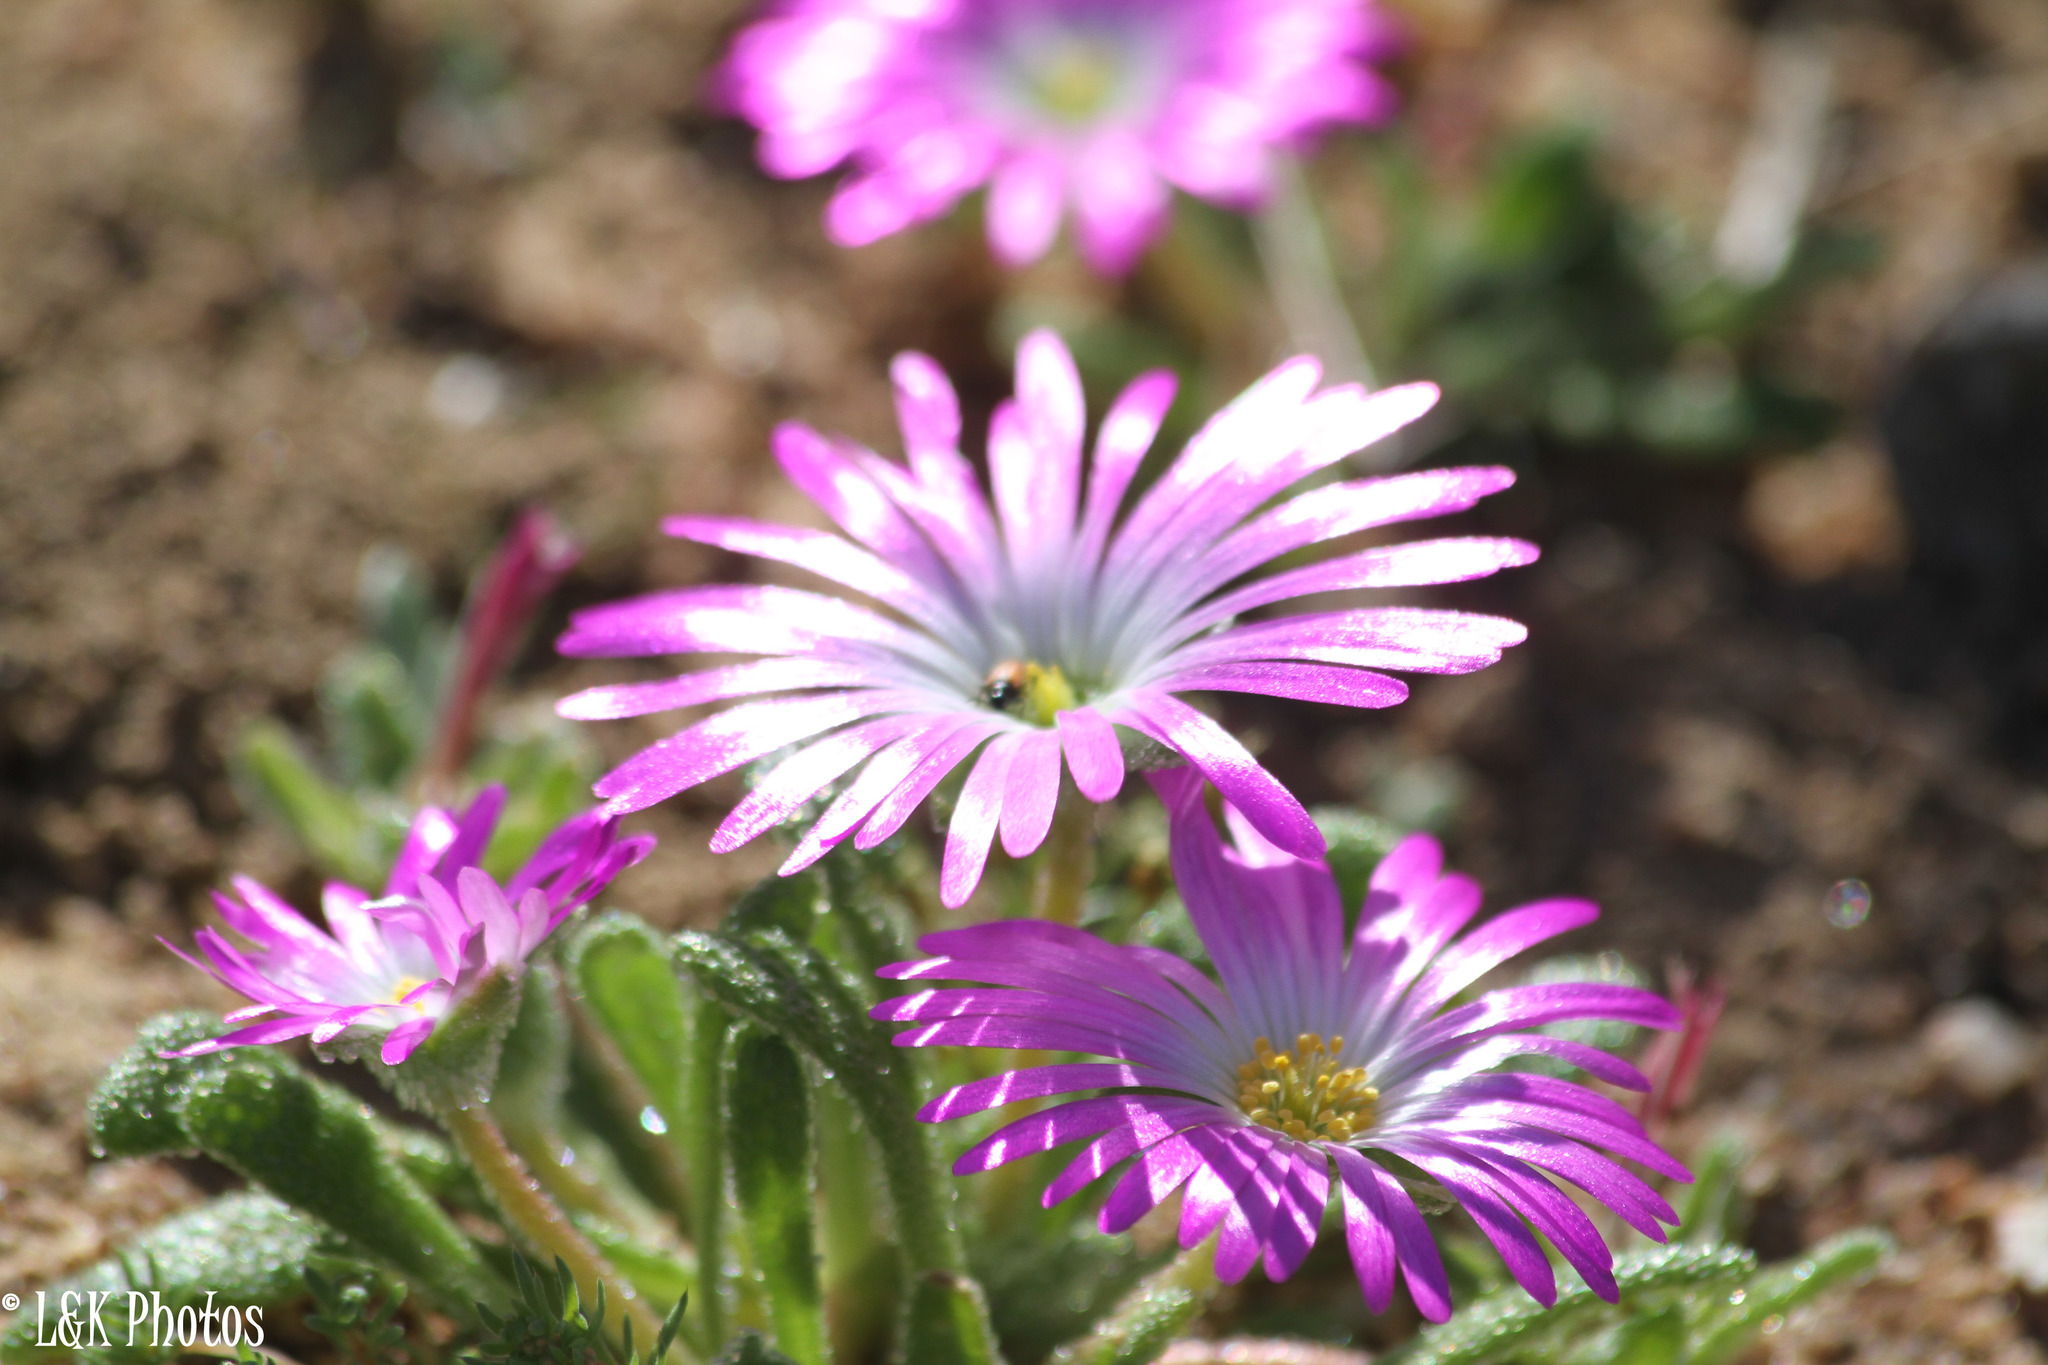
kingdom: Plantae
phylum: Tracheophyta
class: Magnoliopsida
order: Caryophyllales
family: Aizoaceae
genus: Cleretum
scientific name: Cleretum hestermalense
